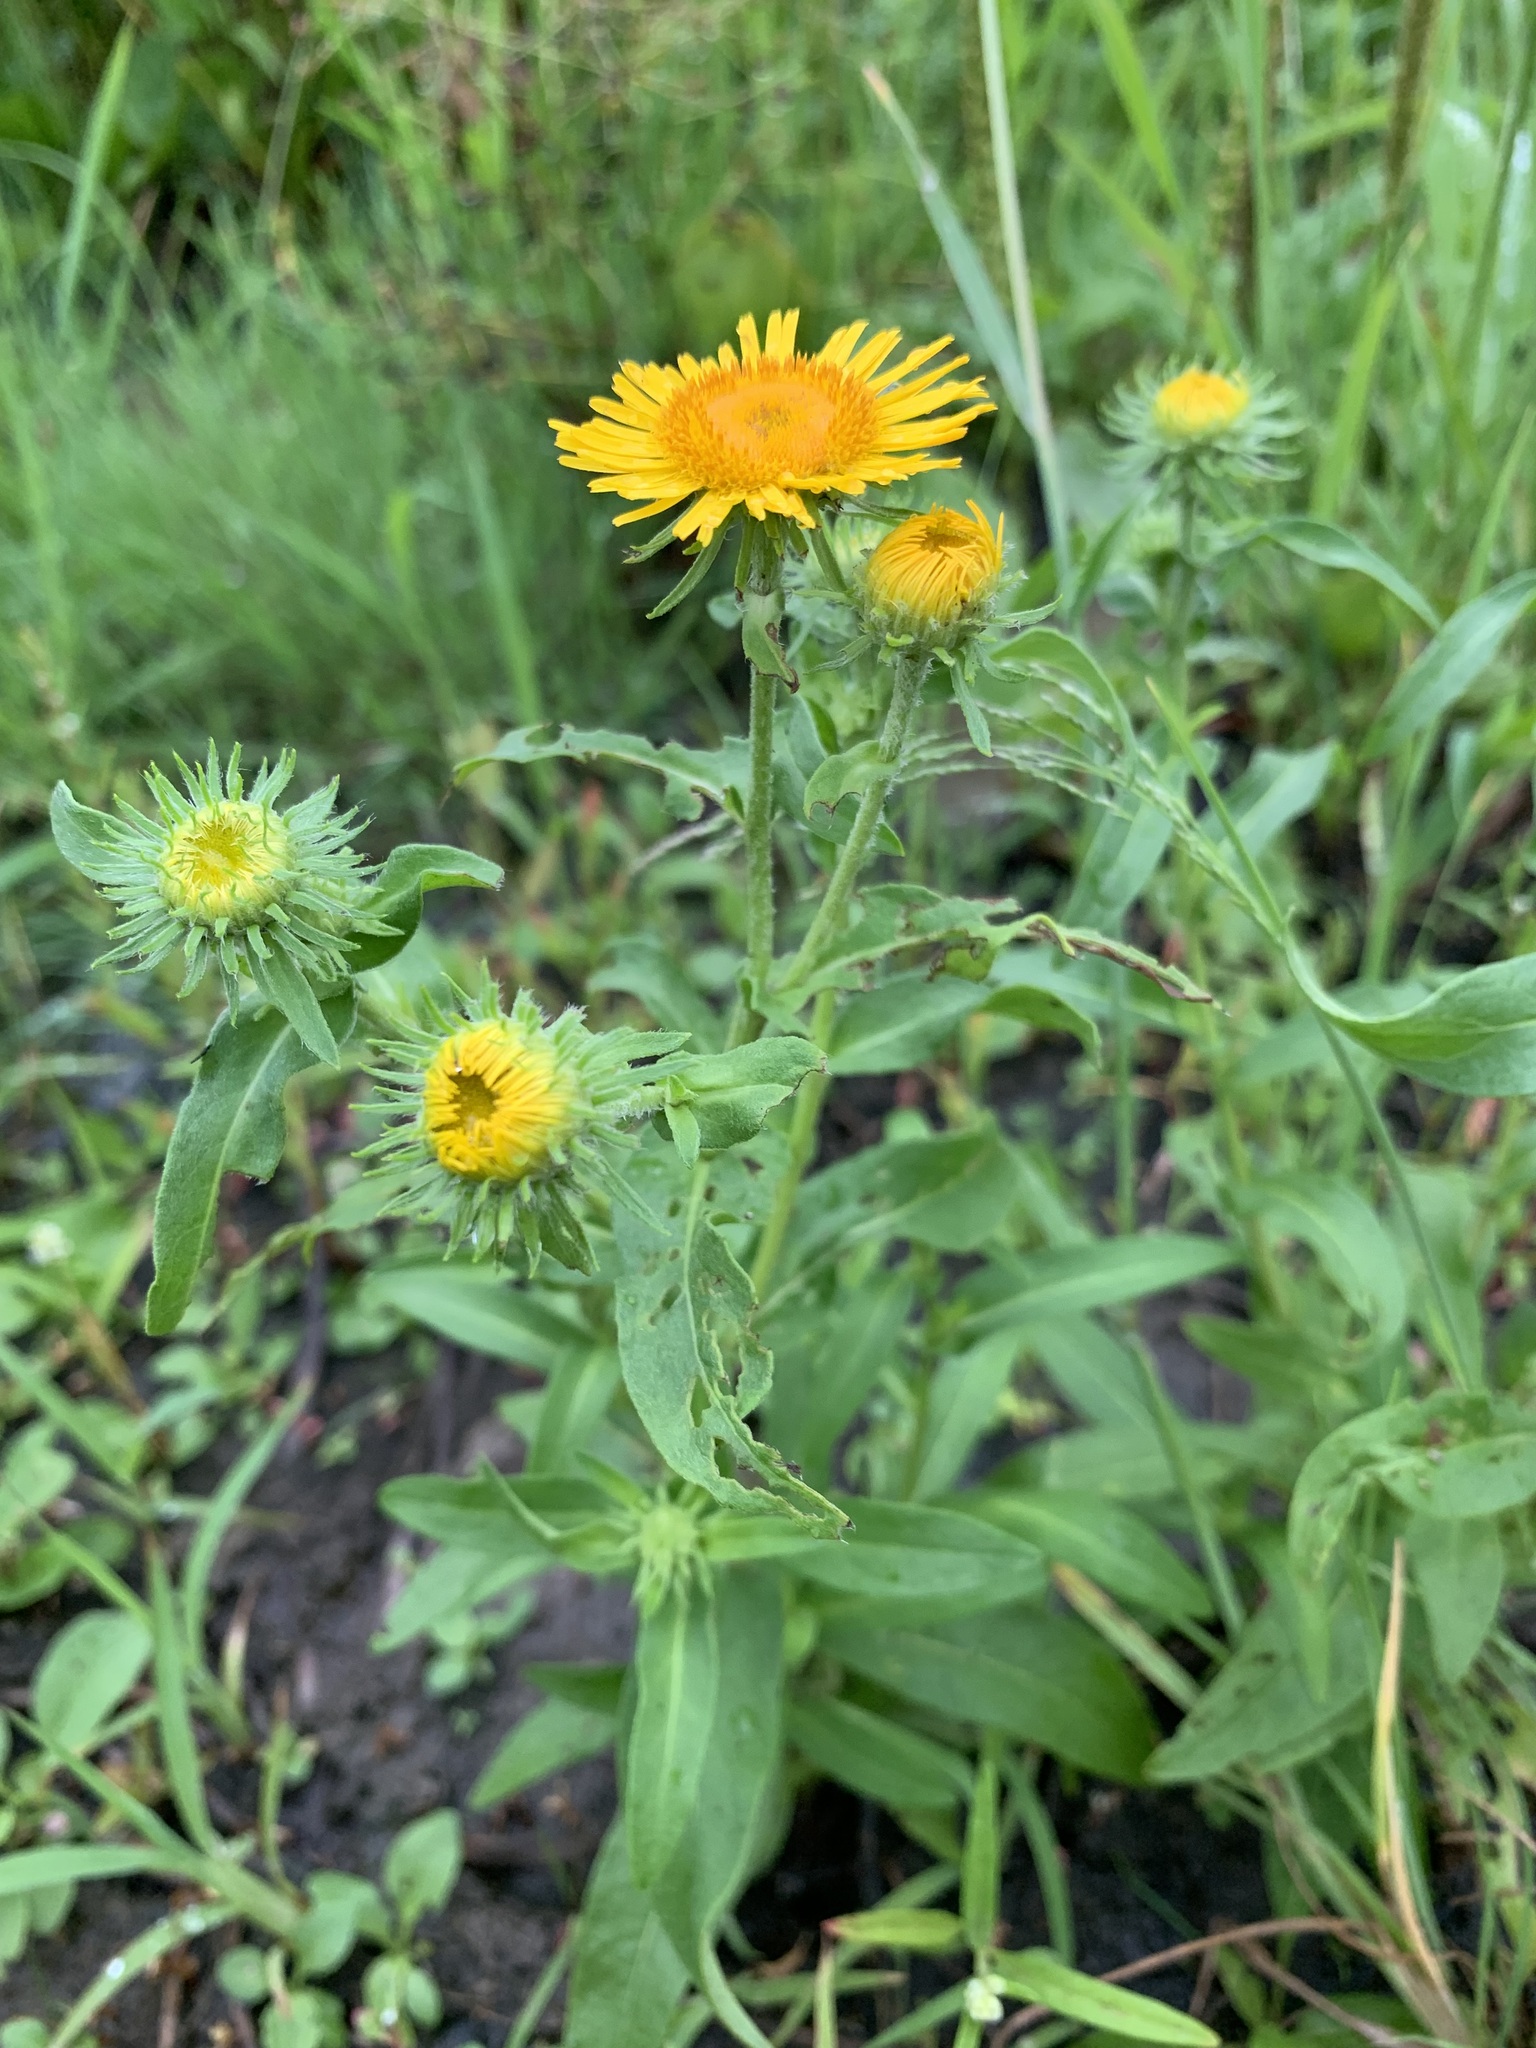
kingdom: Plantae
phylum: Tracheophyta
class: Magnoliopsida
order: Asterales
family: Asteraceae
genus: Pentanema
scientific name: Pentanema britannicum
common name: British elecampane
